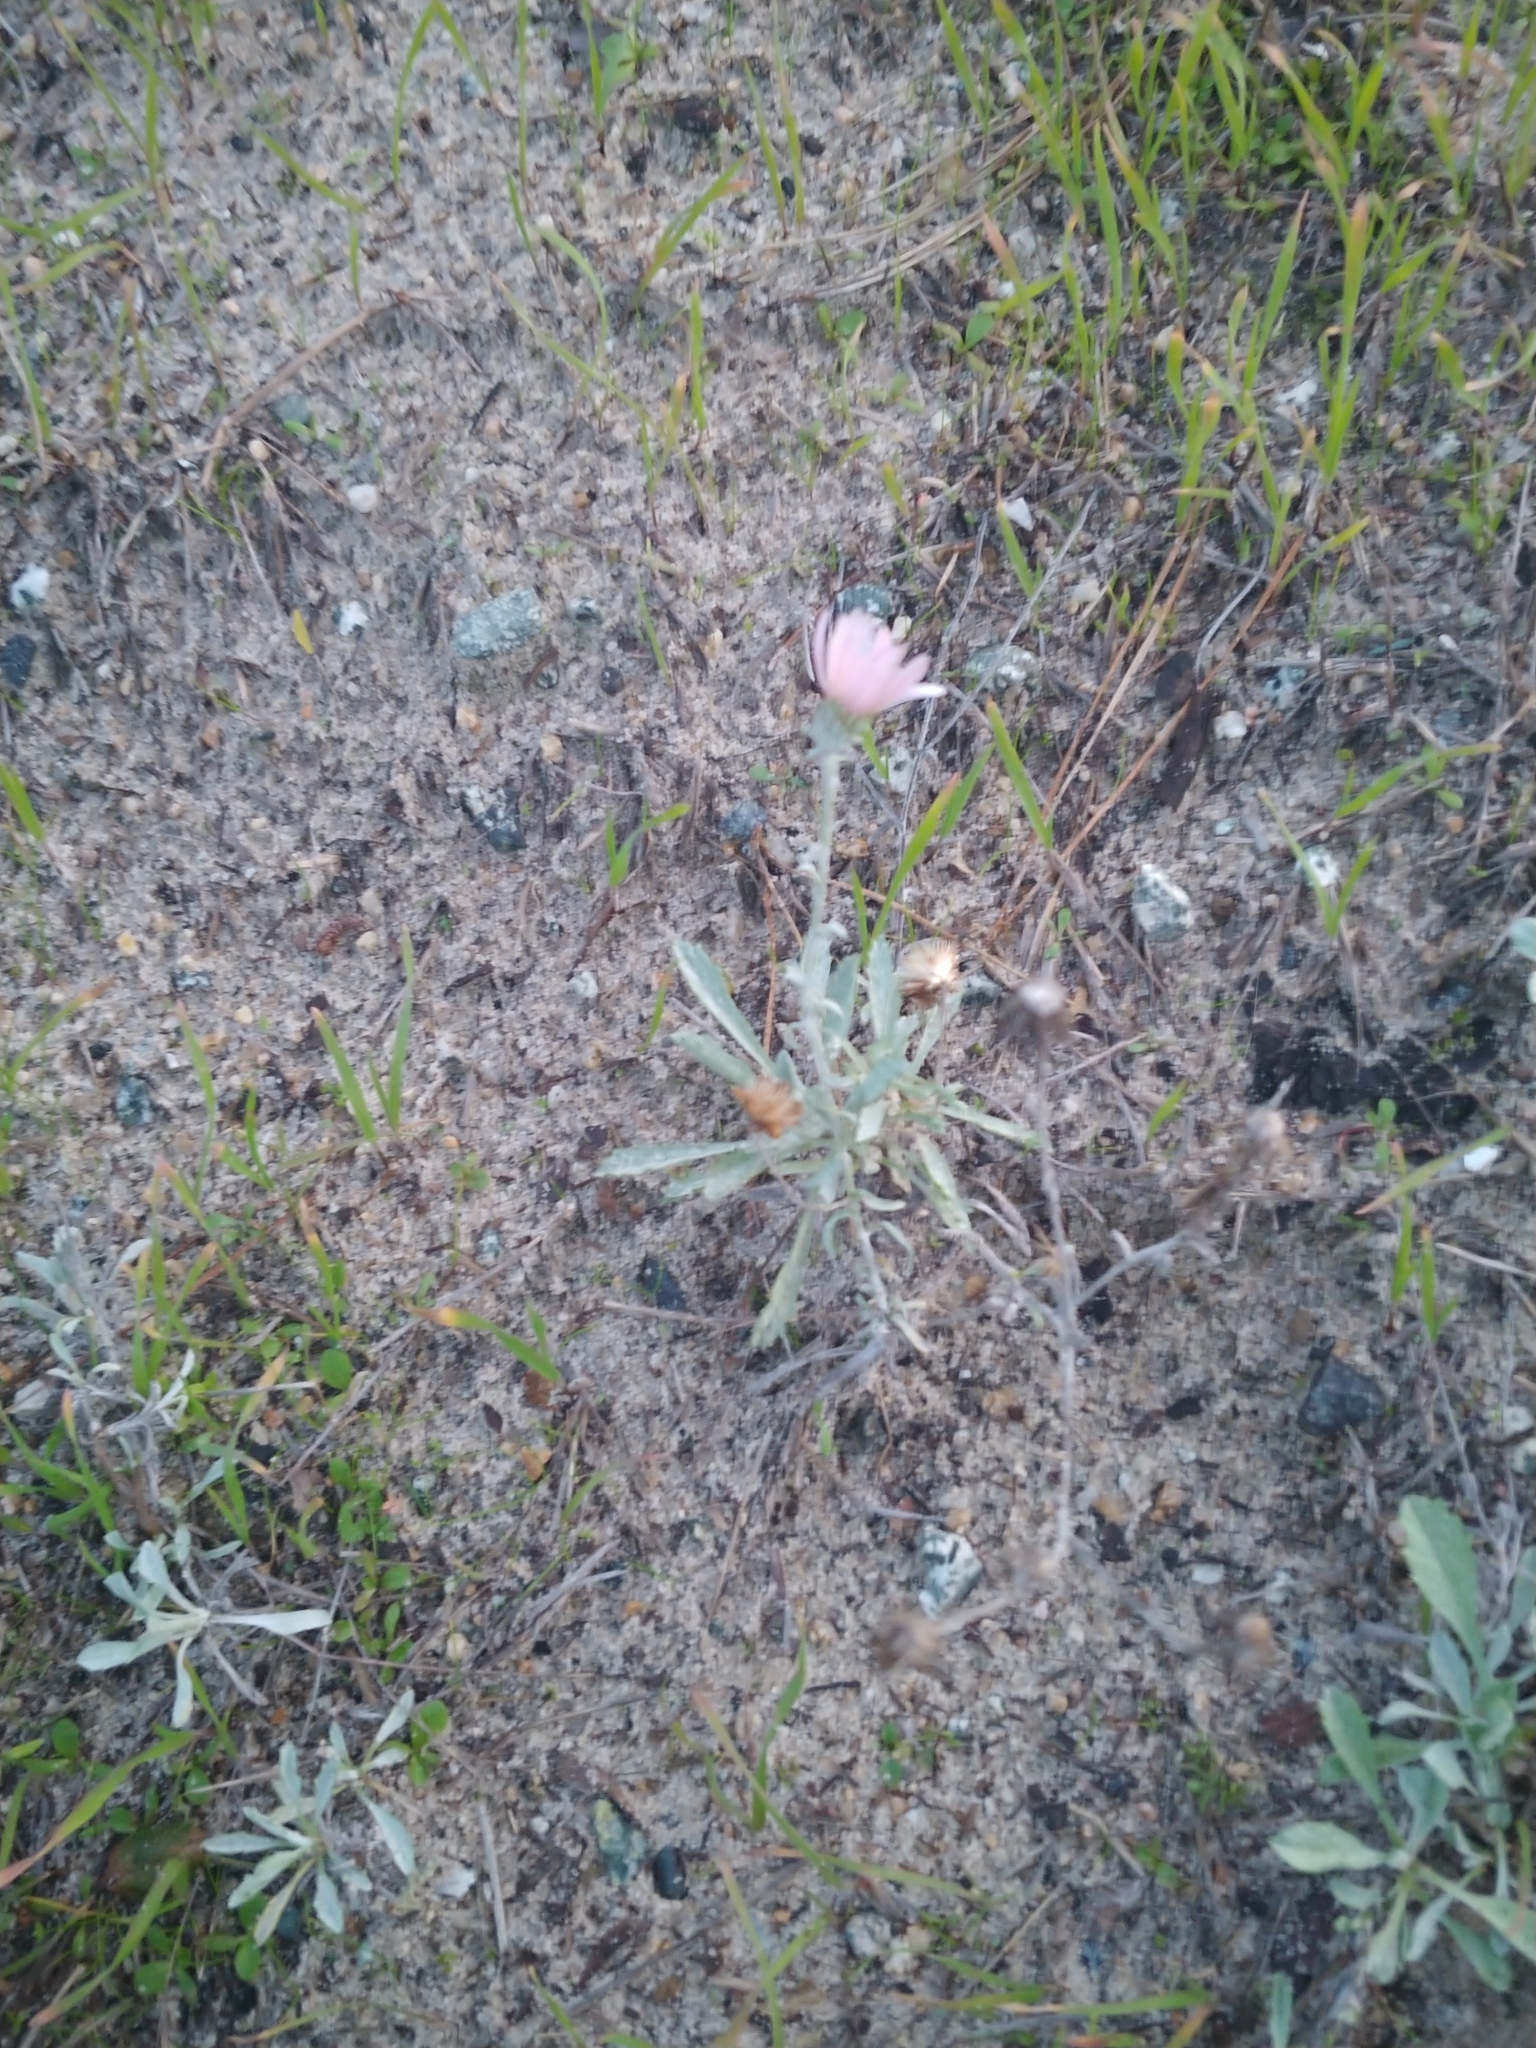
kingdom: Plantae
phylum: Tracheophyta
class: Magnoliopsida
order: Asterales
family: Asteraceae
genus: Corethrogyne
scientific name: Corethrogyne filaginifolia
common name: Sand-aster
